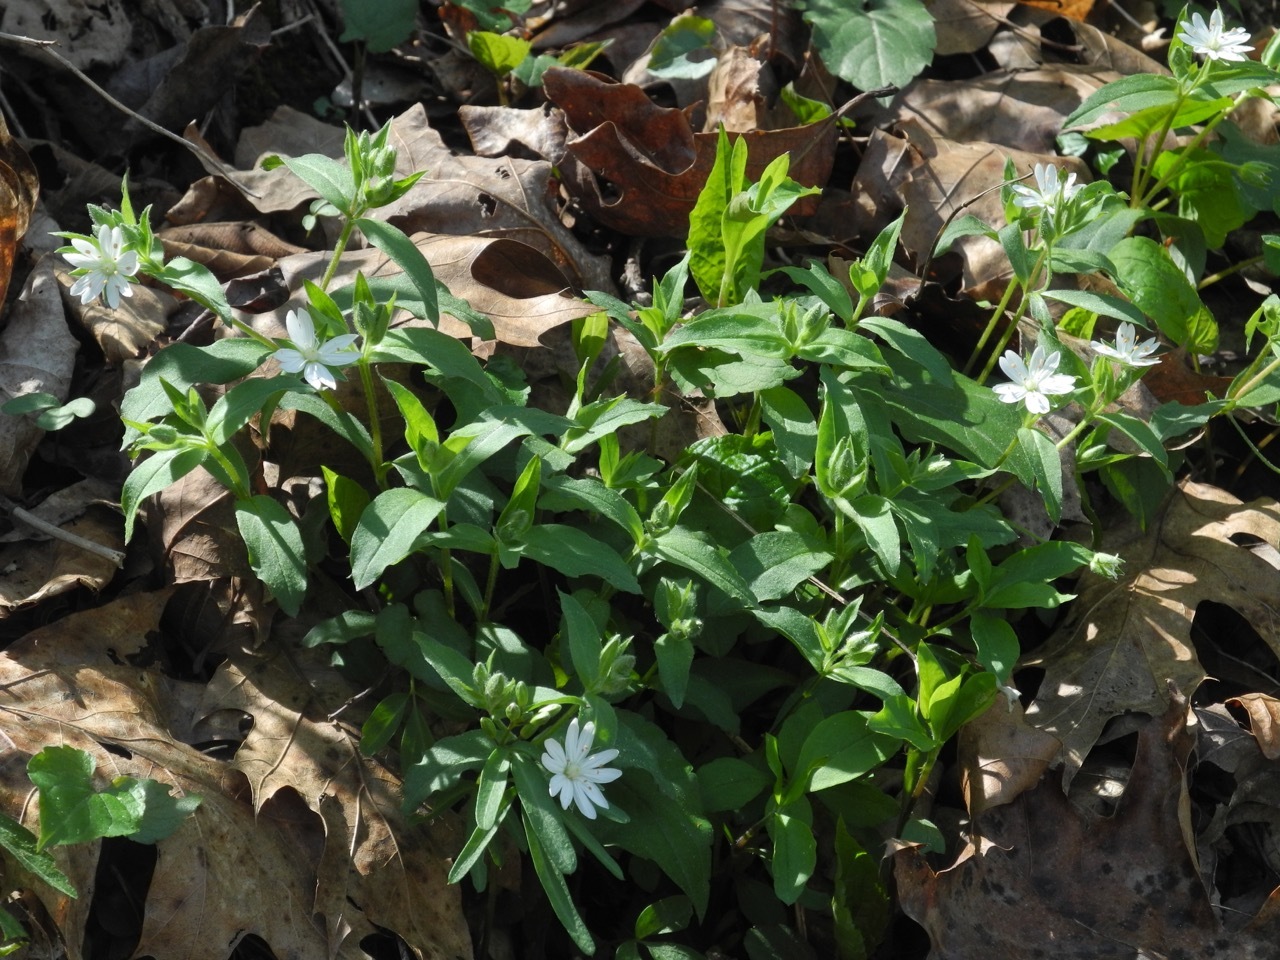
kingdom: Plantae
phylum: Tracheophyta
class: Magnoliopsida
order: Caryophyllales
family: Caryophyllaceae
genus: Stellaria
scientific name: Stellaria pubera
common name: Star chickweed
